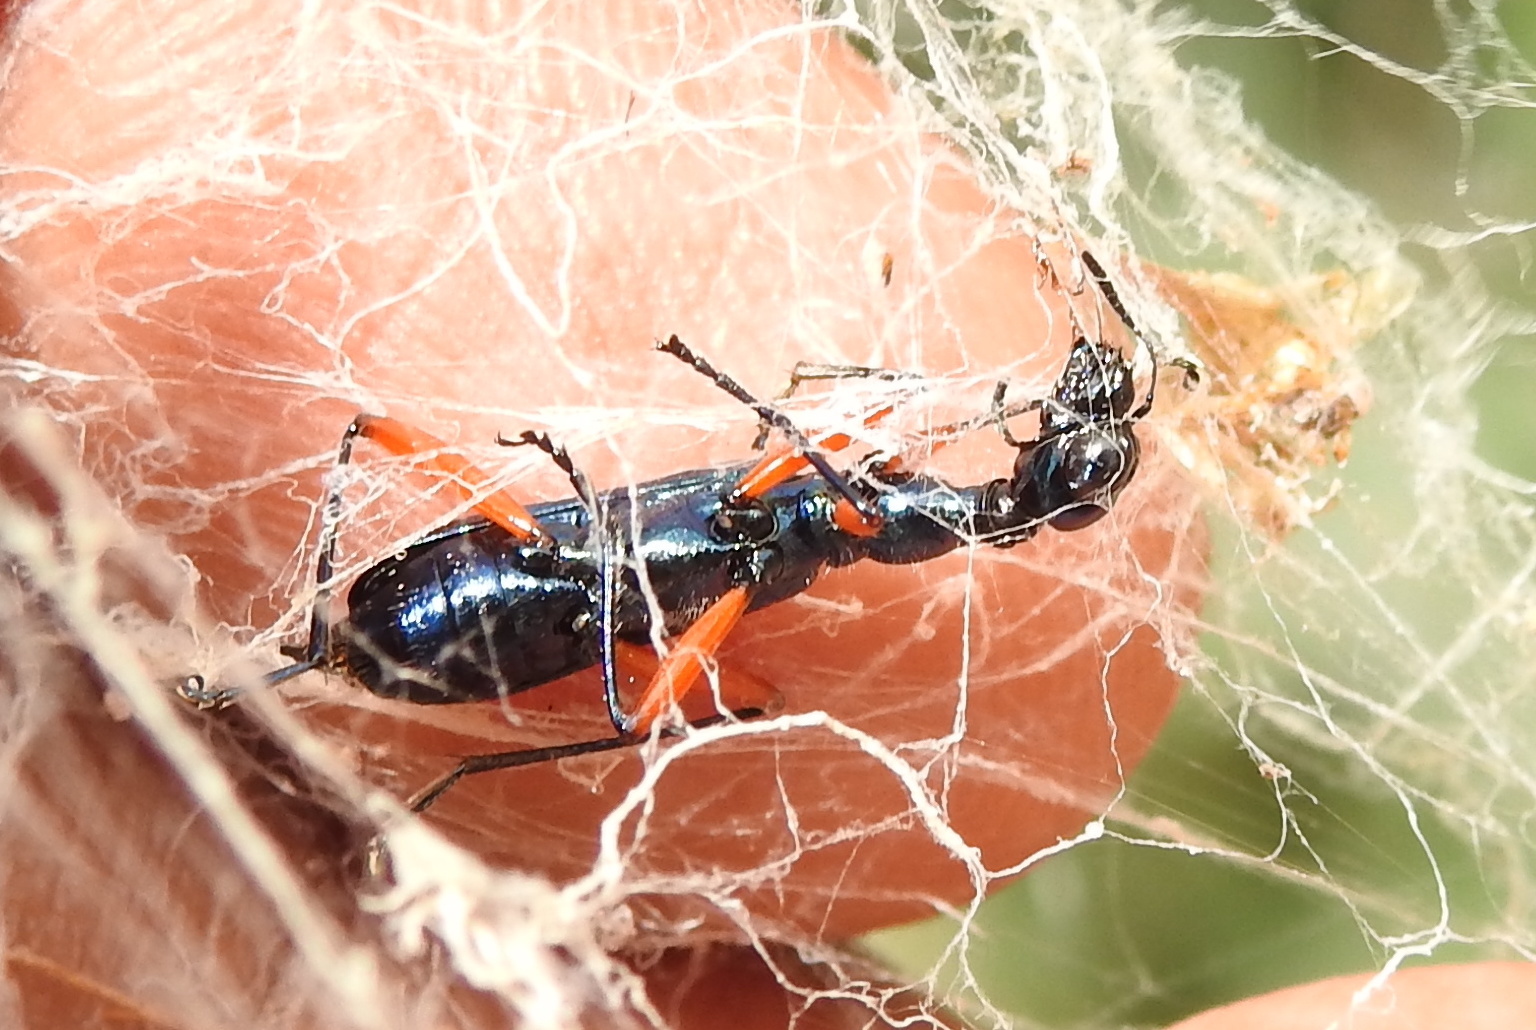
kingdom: Animalia
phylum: Arthropoda
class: Insecta
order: Coleoptera
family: Carabidae
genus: Neocollyris
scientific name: Neocollyris bonellii
